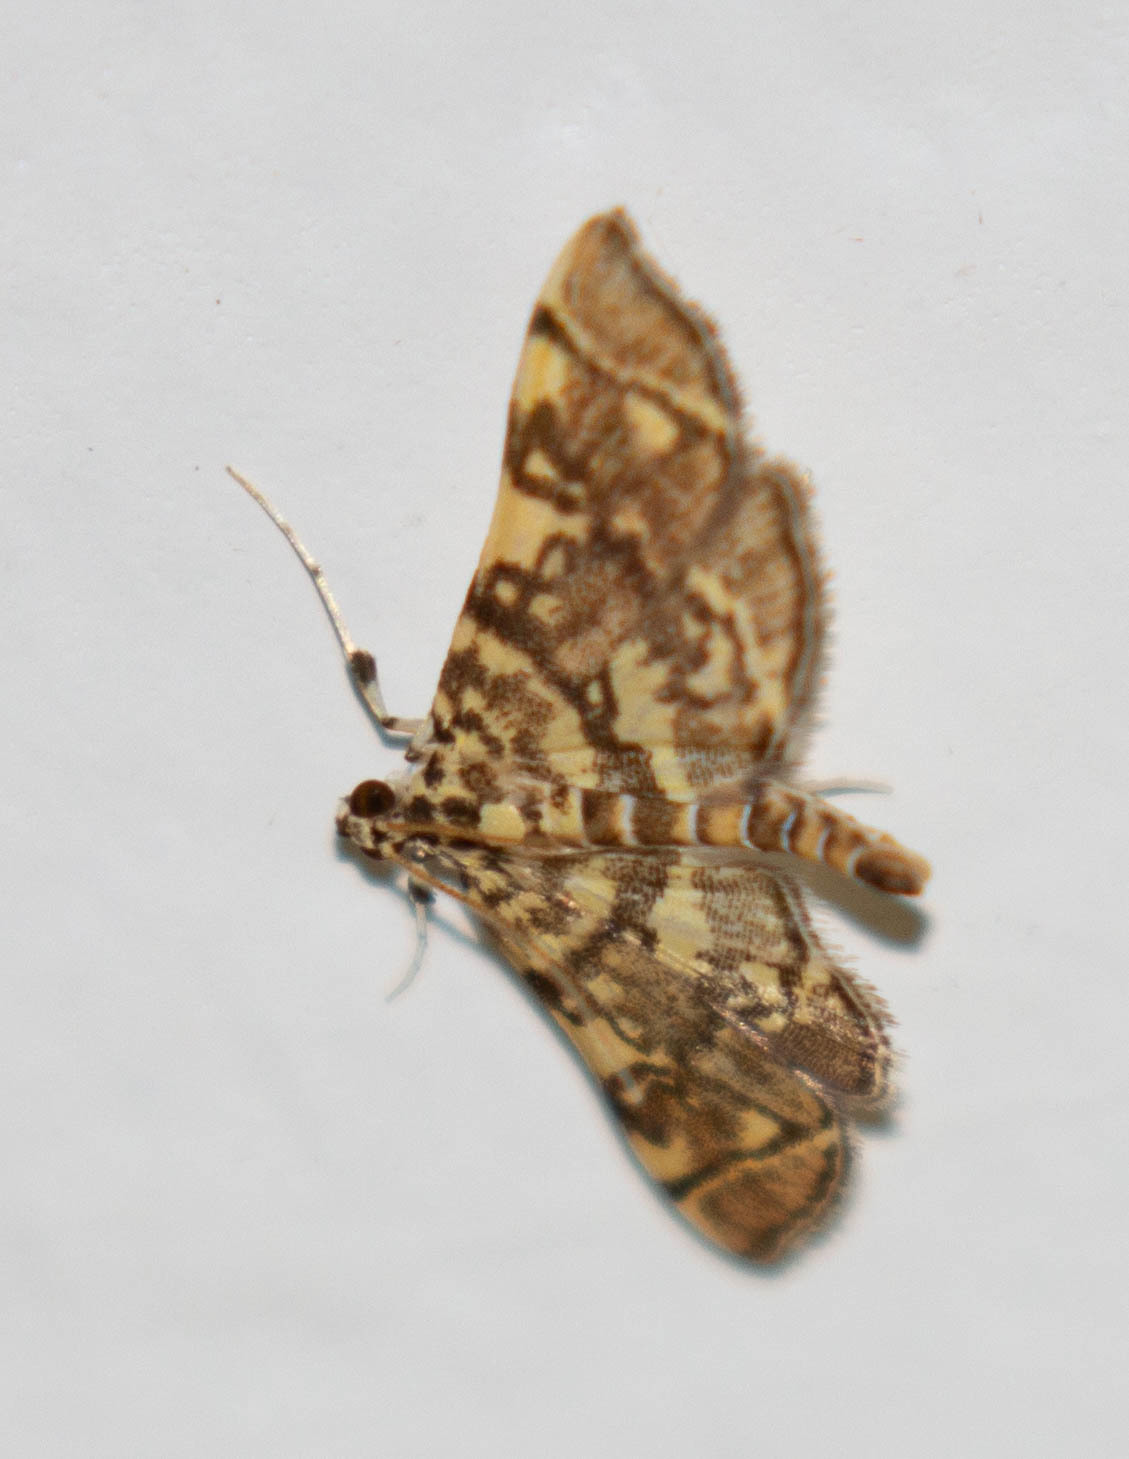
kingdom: Animalia
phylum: Arthropoda
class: Insecta
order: Lepidoptera
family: Crambidae
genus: Apogeshna
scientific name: Apogeshna stenialis
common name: Checkered apogeshna moth
